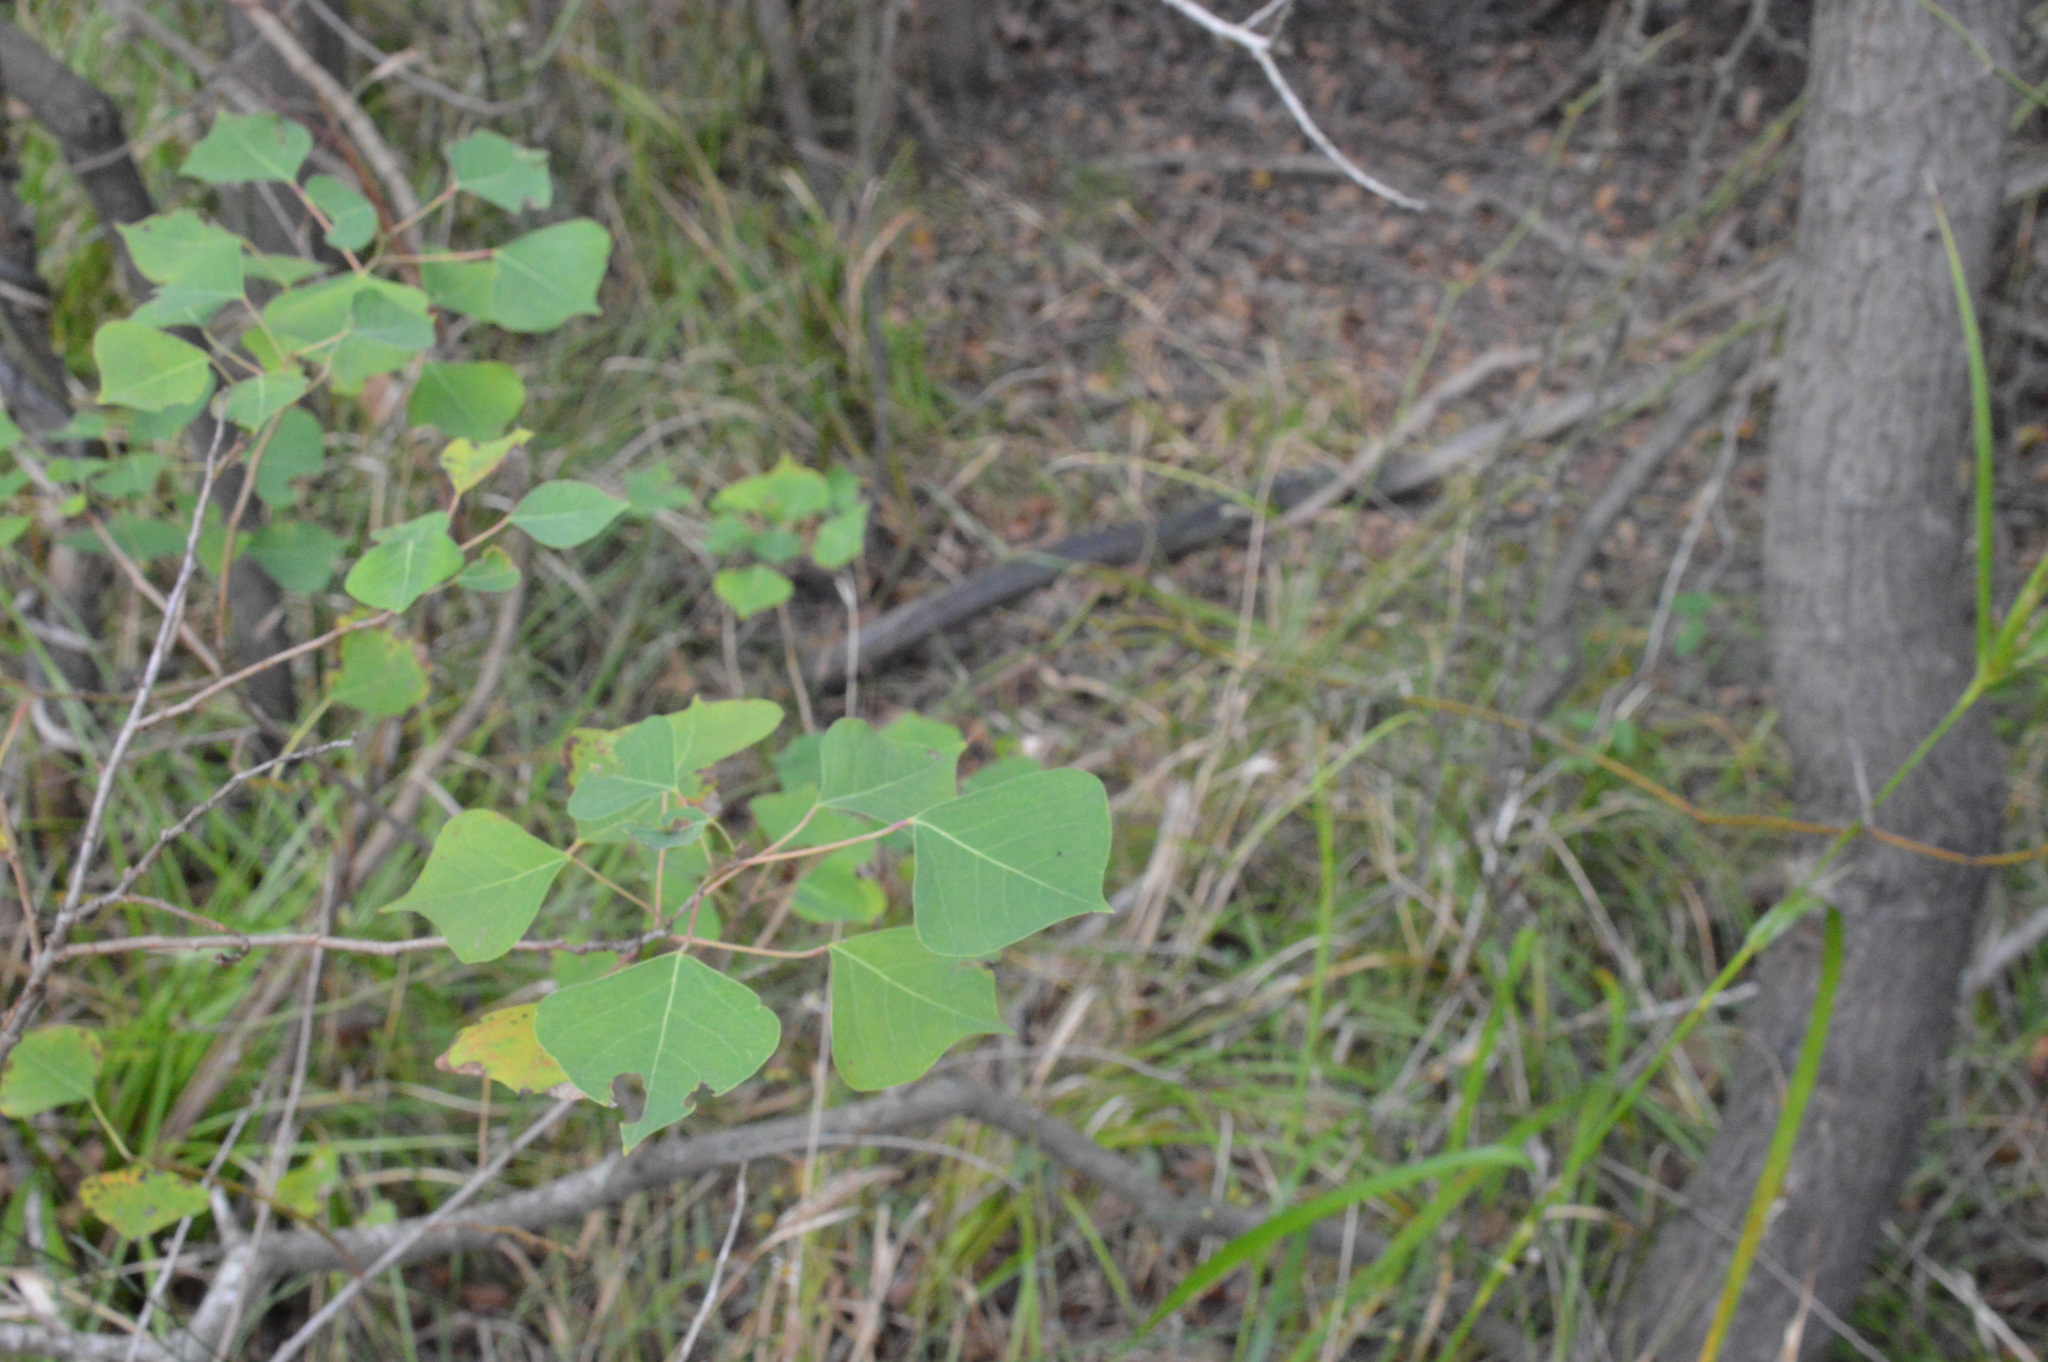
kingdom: Plantae
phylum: Tracheophyta
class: Magnoliopsida
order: Malpighiales
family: Euphorbiaceae
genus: Triadica
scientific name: Triadica sebifera
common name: Chinese tallow
